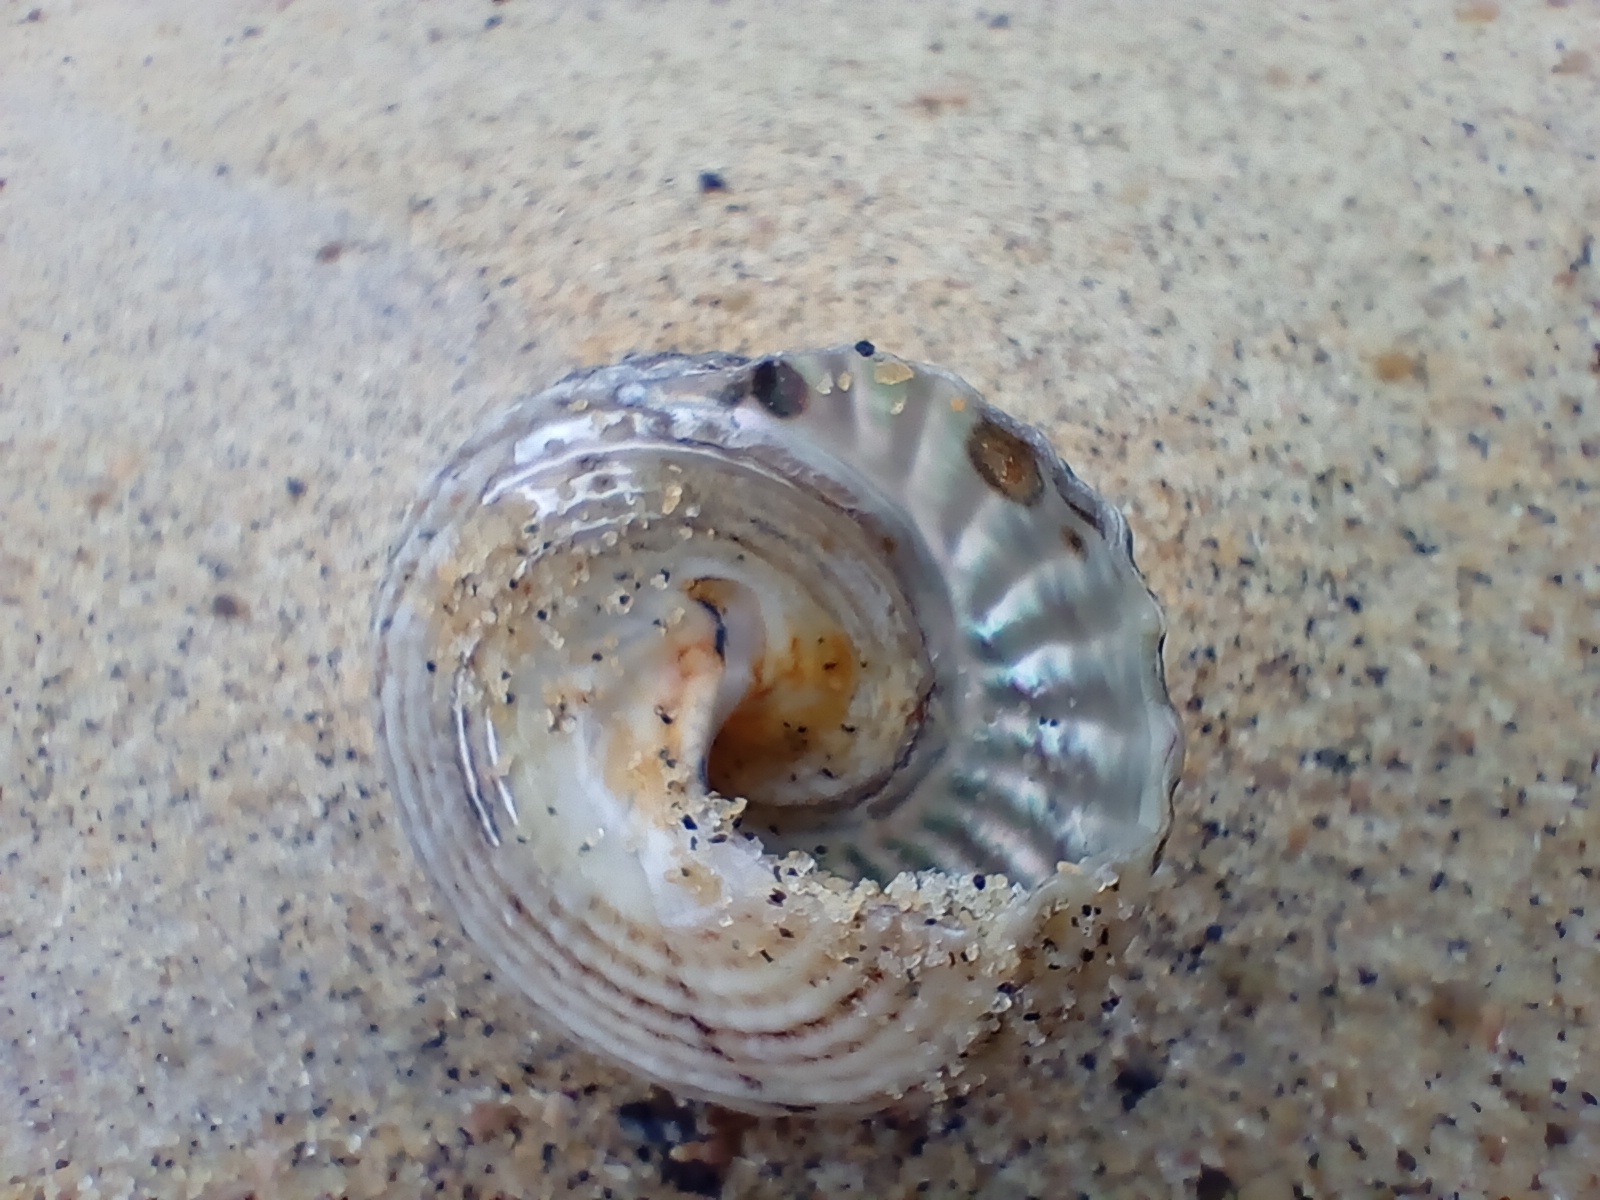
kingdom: Animalia
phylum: Mollusca
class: Gastropoda
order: Trochida
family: Turbinidae
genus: Cookia
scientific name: Cookia sulcata
